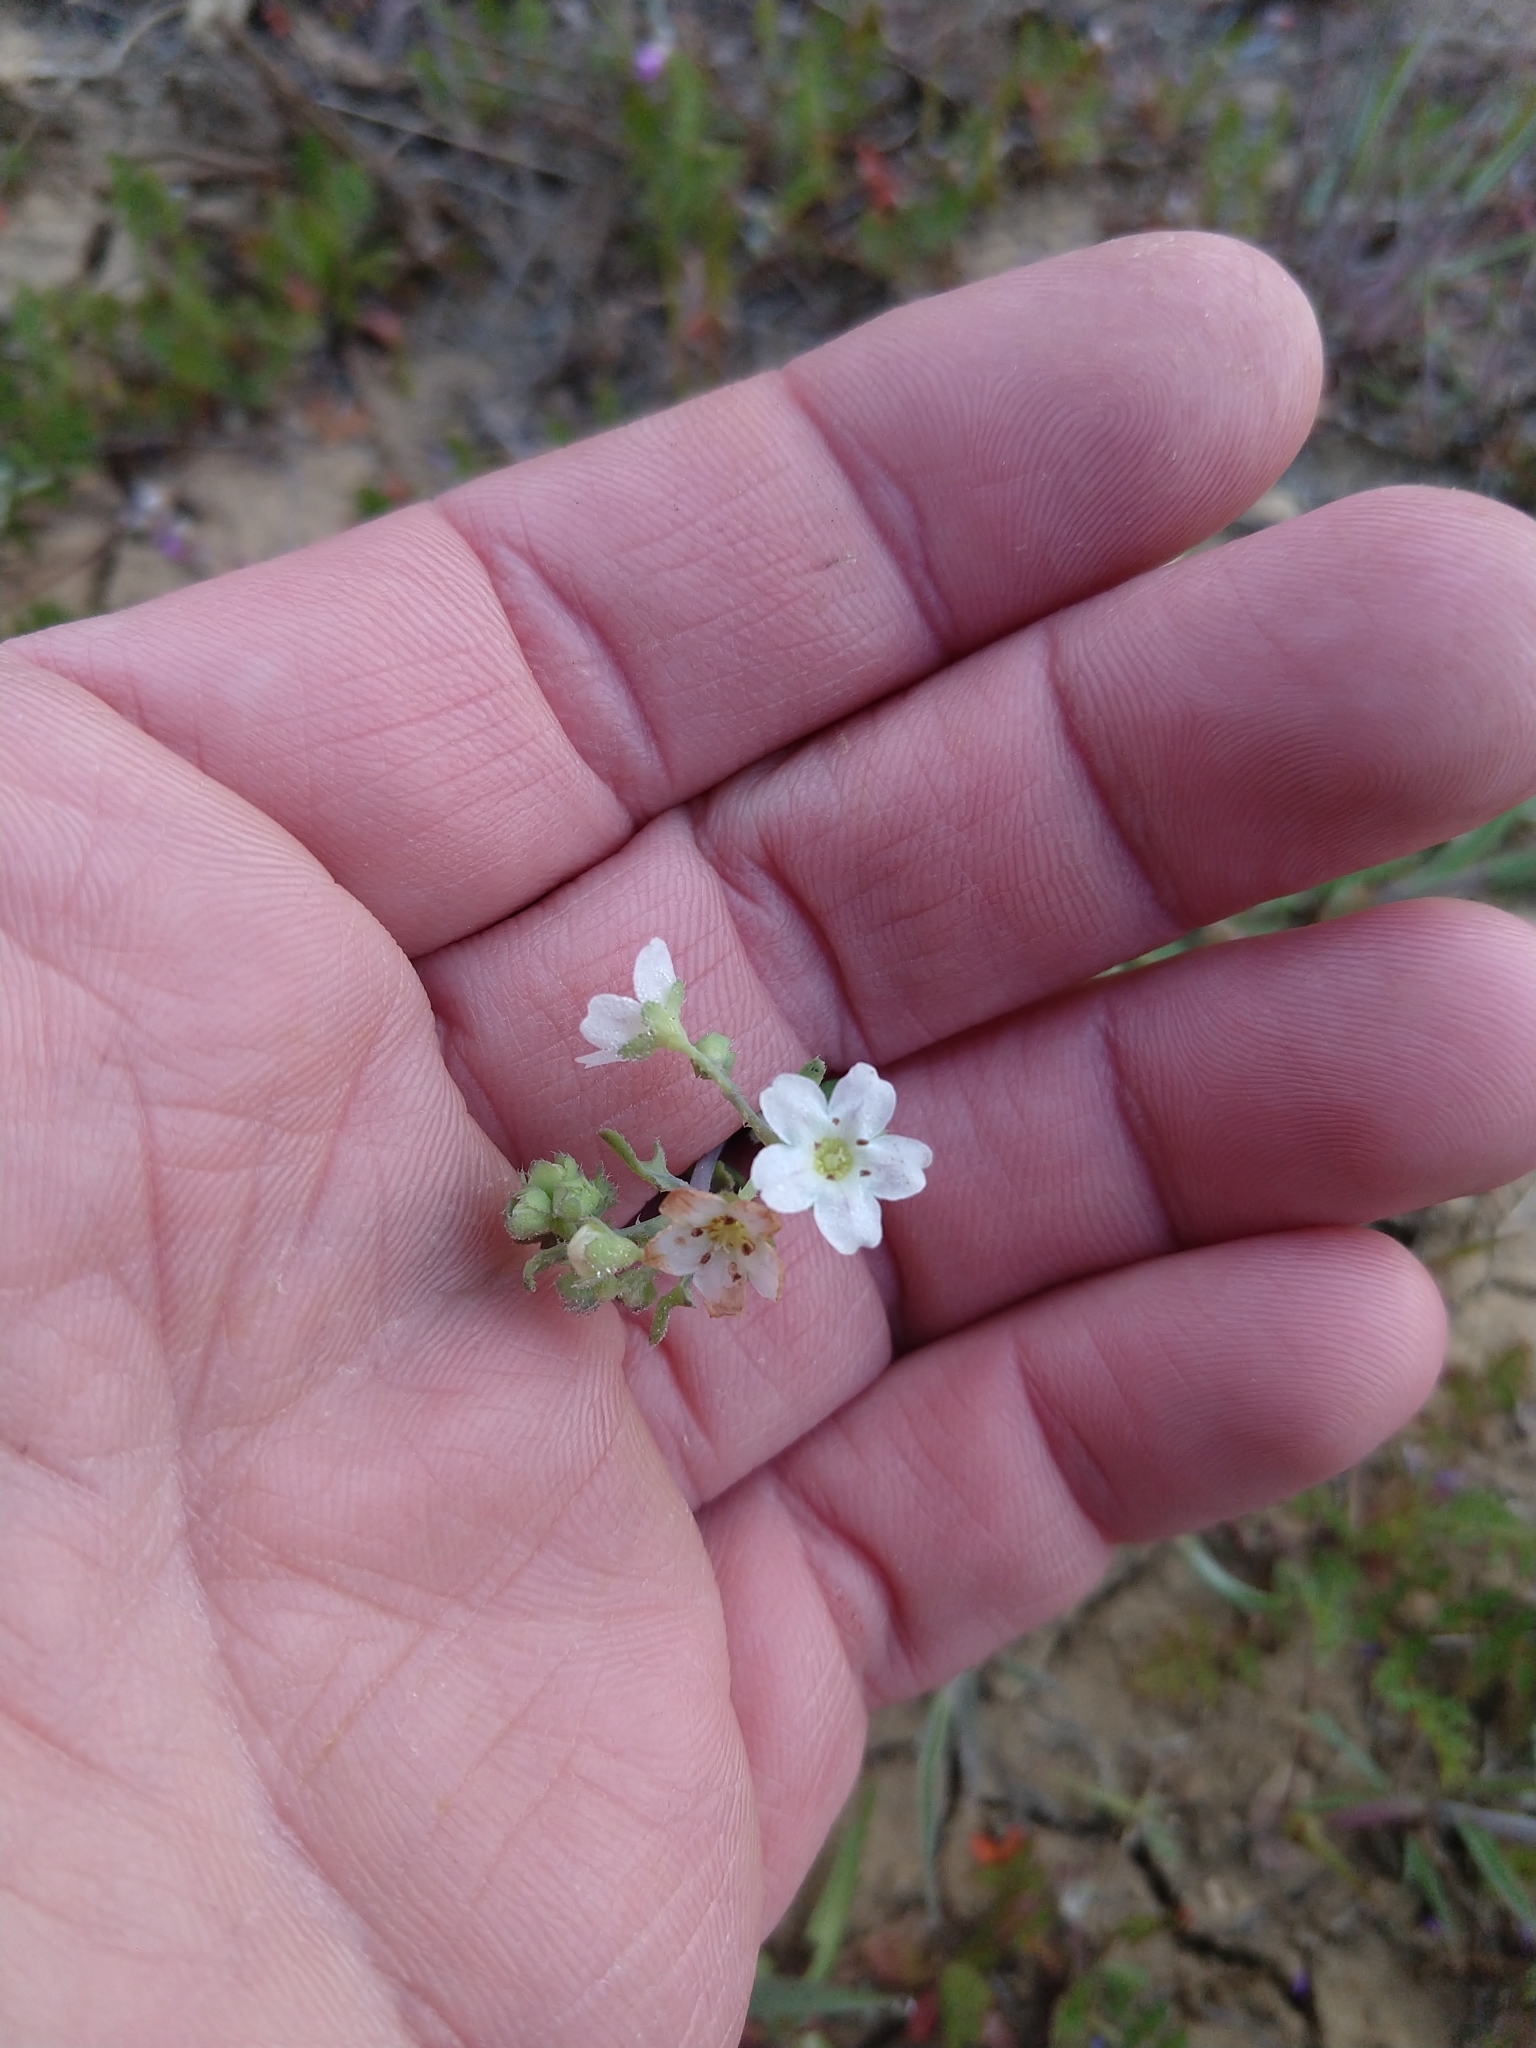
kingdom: Plantae
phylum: Tracheophyta
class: Magnoliopsida
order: Boraginales
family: Hydrophyllaceae
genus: Pholistoma
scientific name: Pholistoma membranaceum
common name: White fiesta-flower
